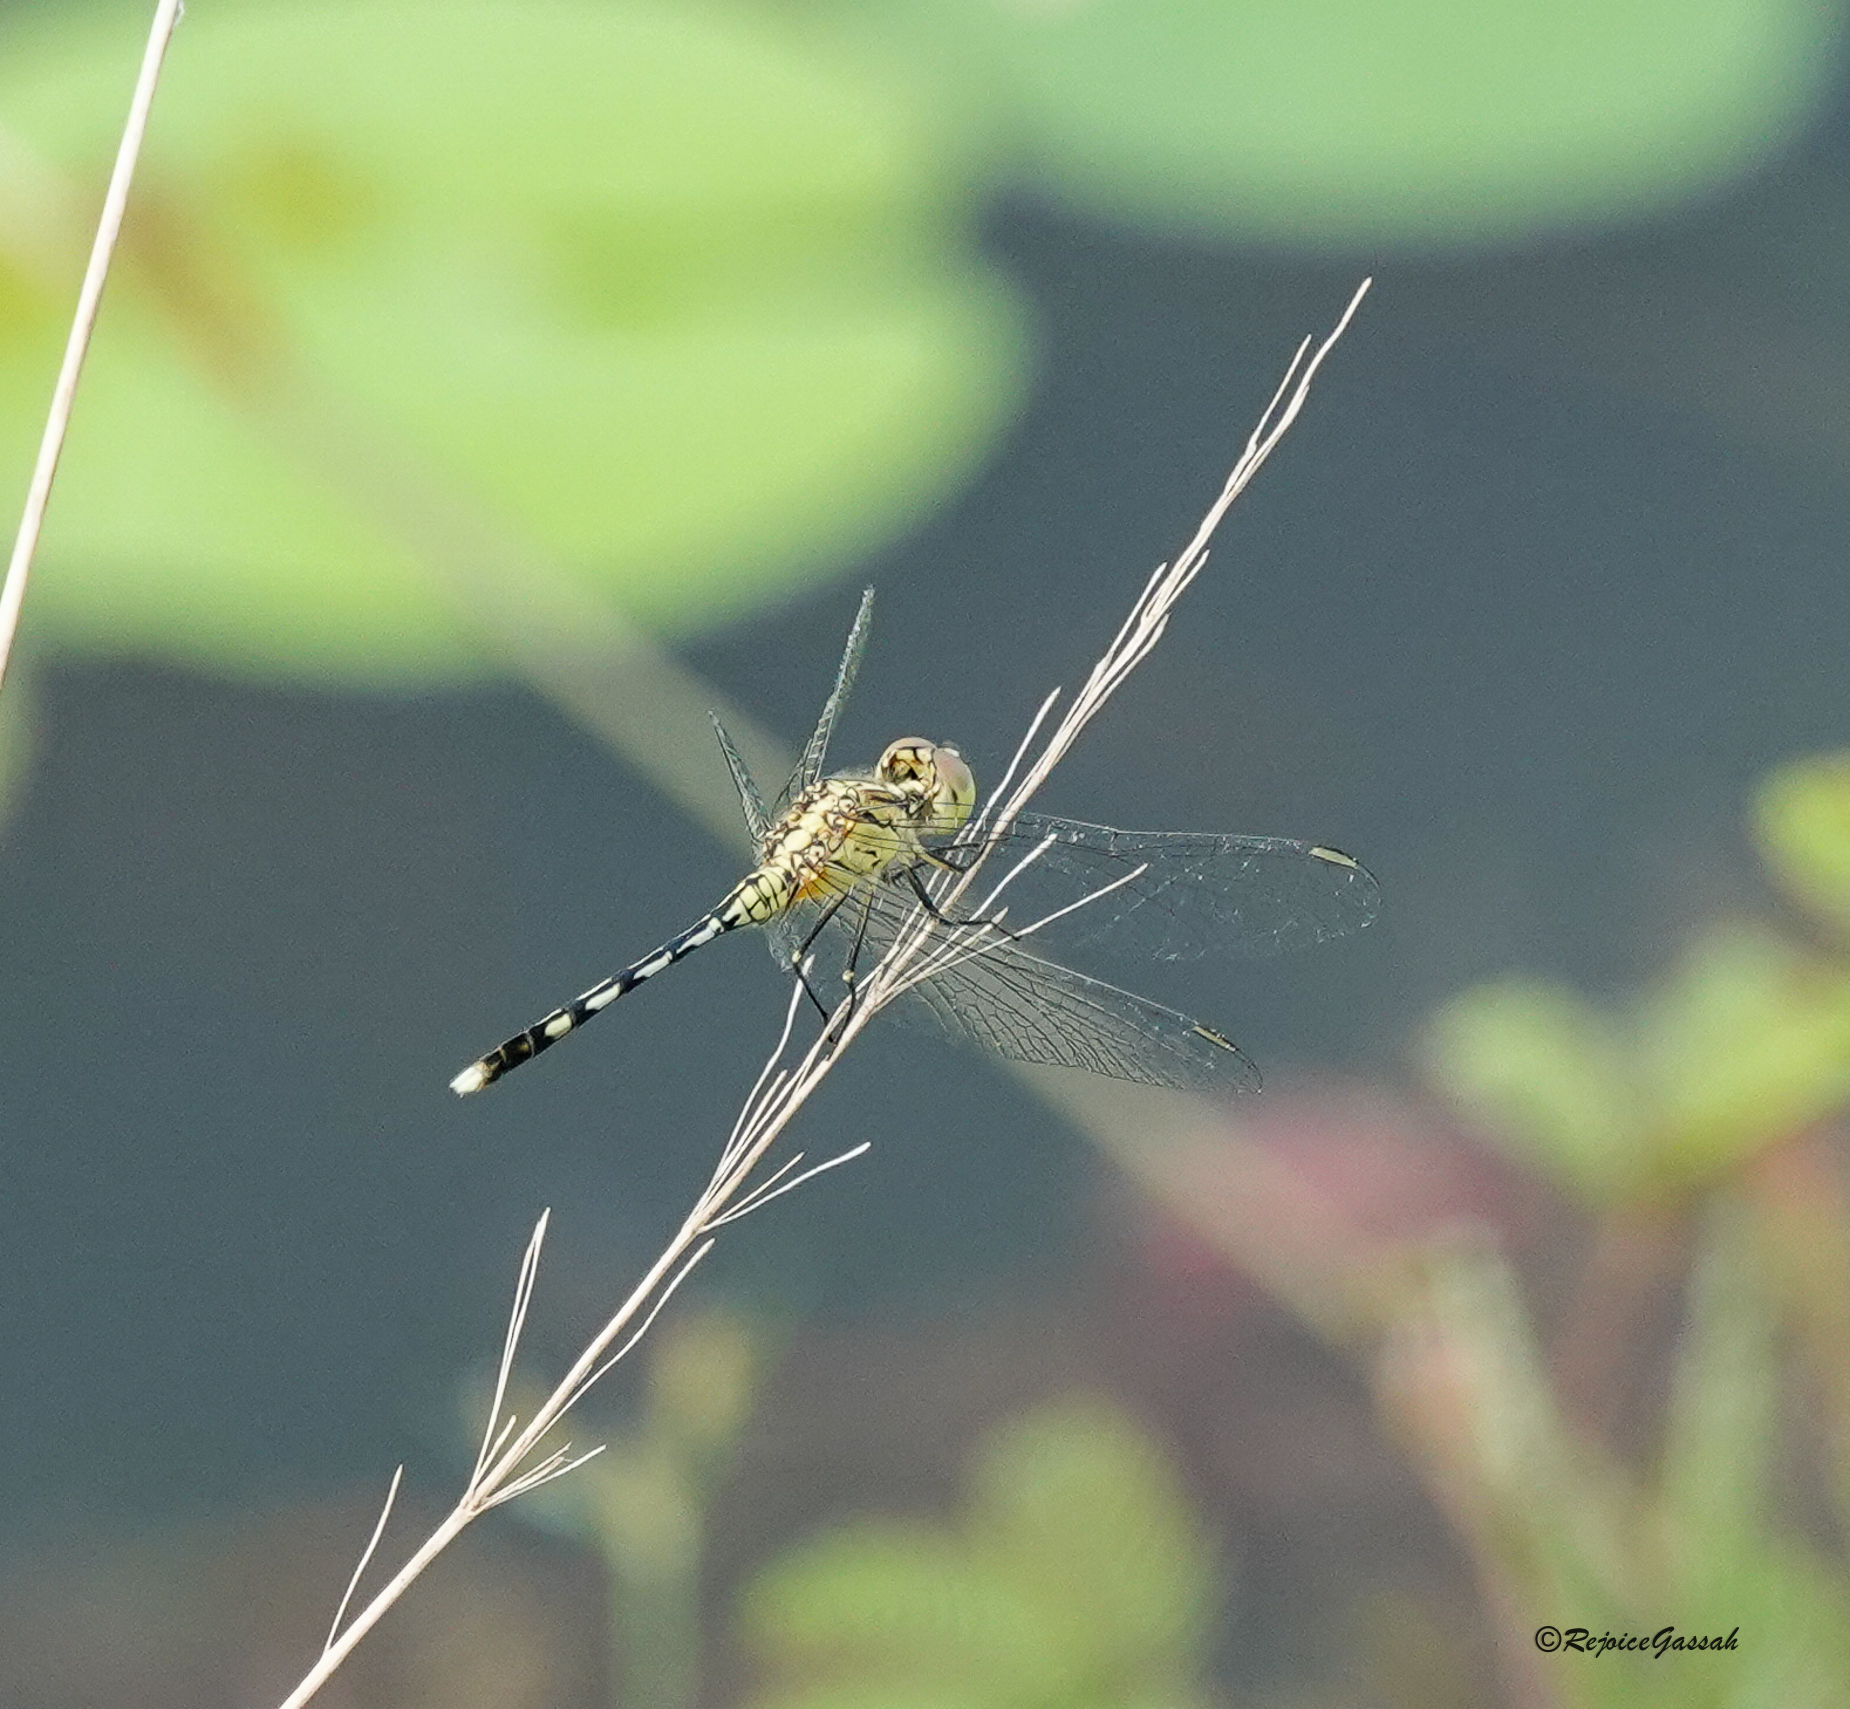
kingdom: Animalia
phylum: Arthropoda
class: Insecta
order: Odonata
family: Libellulidae
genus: Diplacodes
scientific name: Diplacodes trivialis
